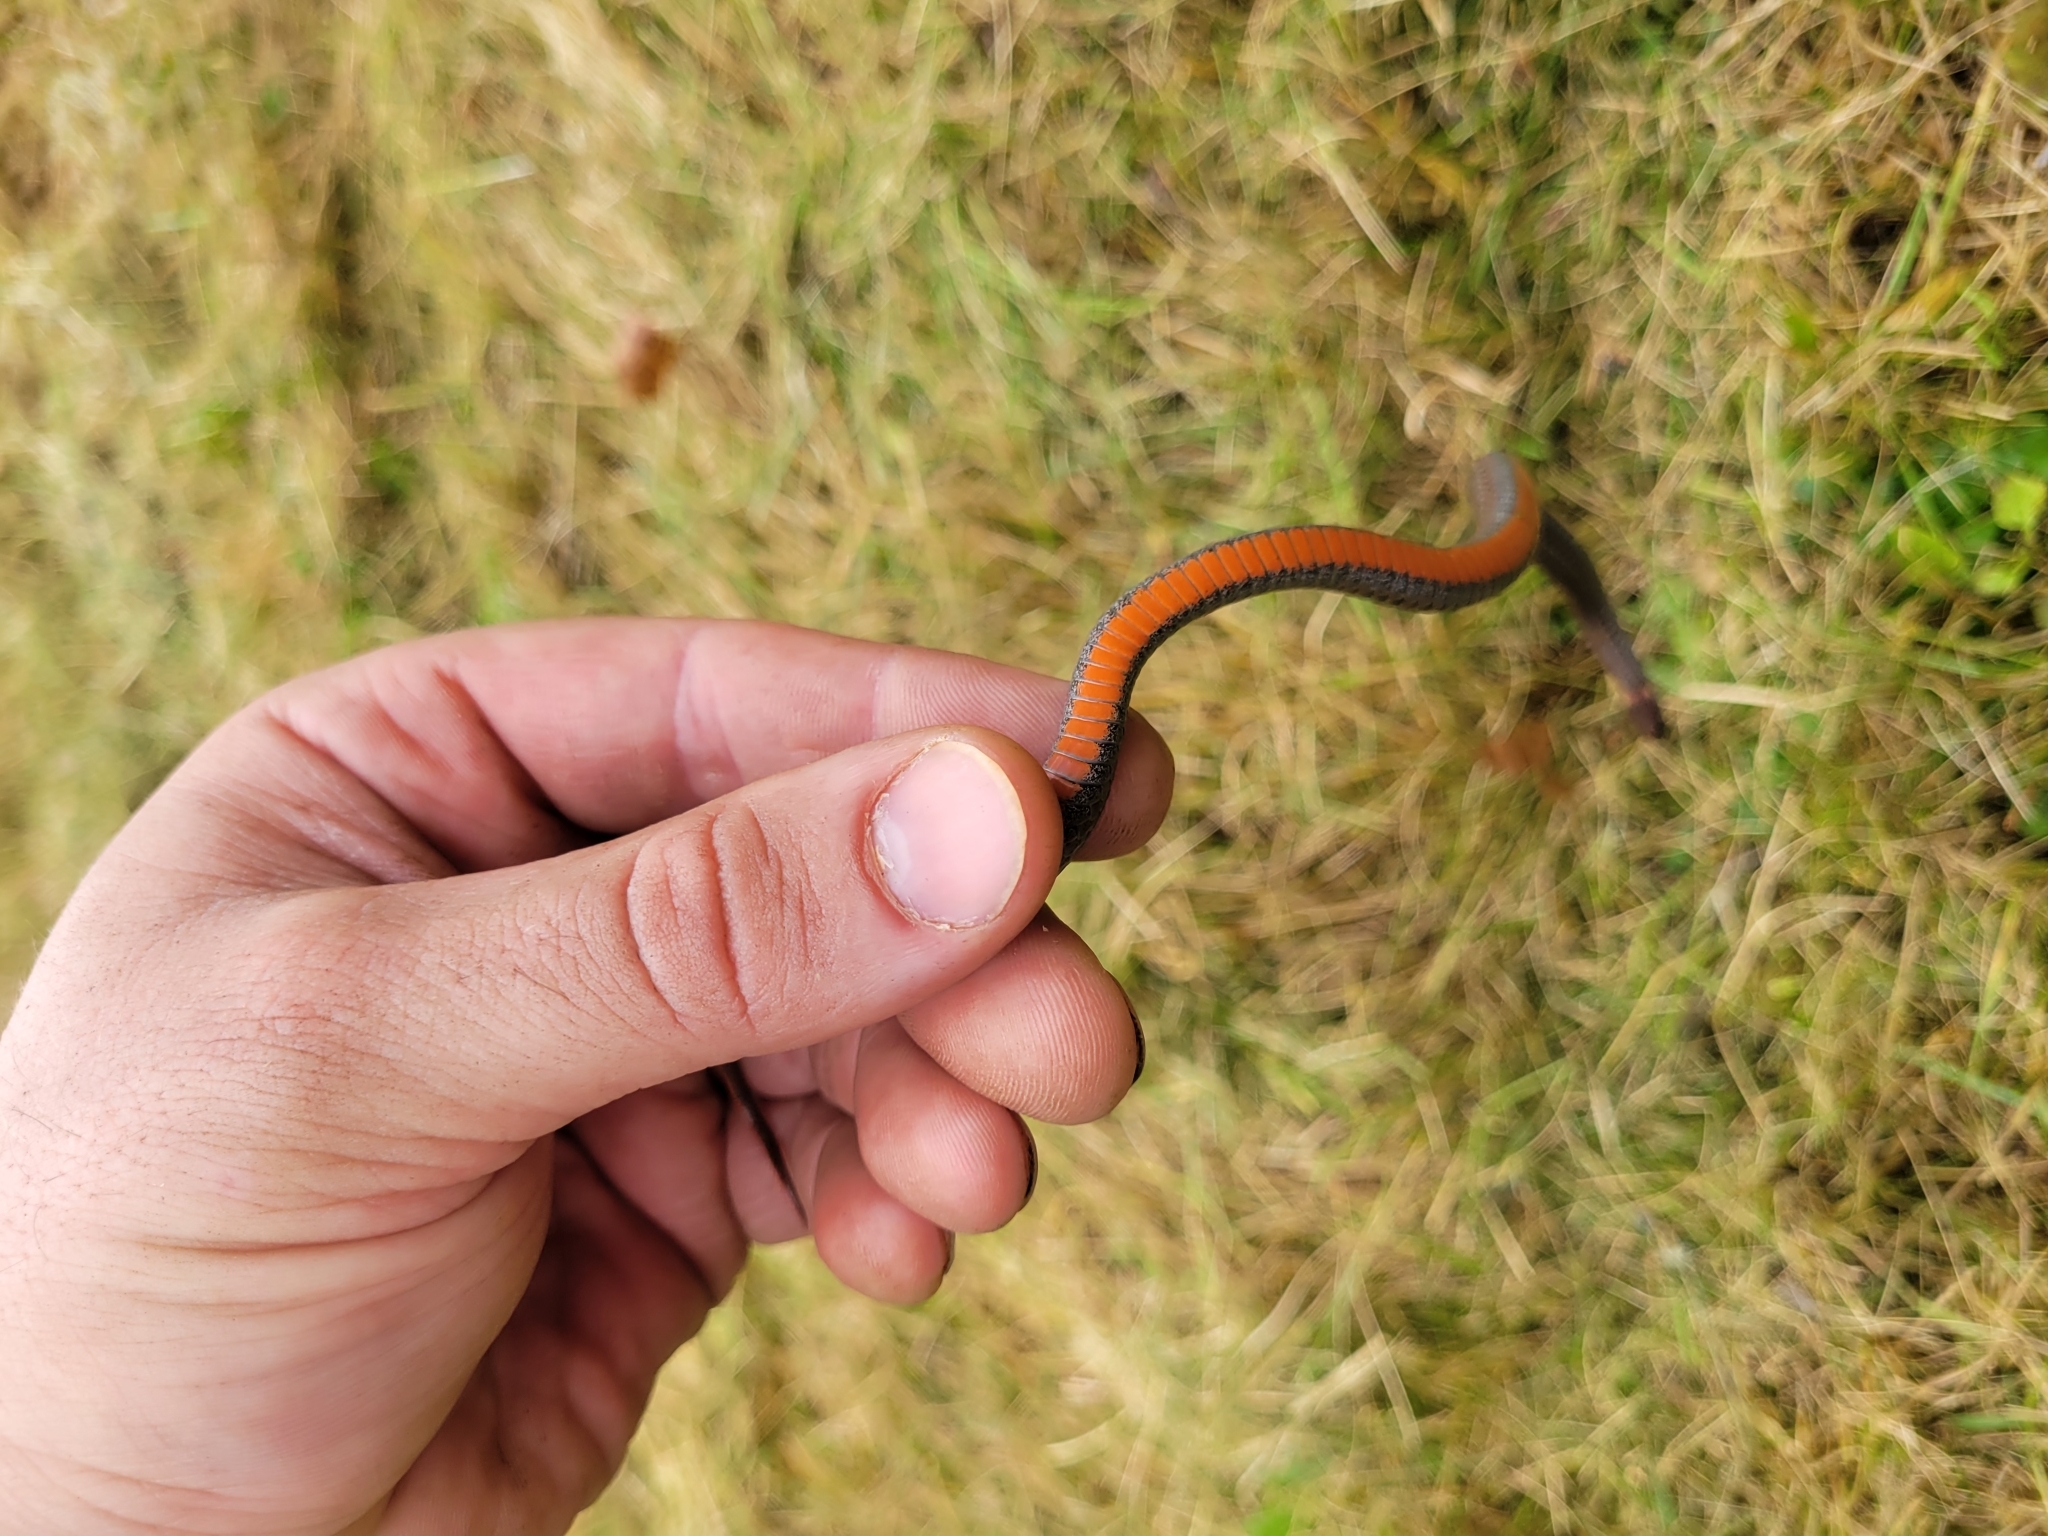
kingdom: Animalia
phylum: Chordata
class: Squamata
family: Colubridae
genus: Storeria
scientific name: Storeria occipitomaculata
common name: Redbelly snake
